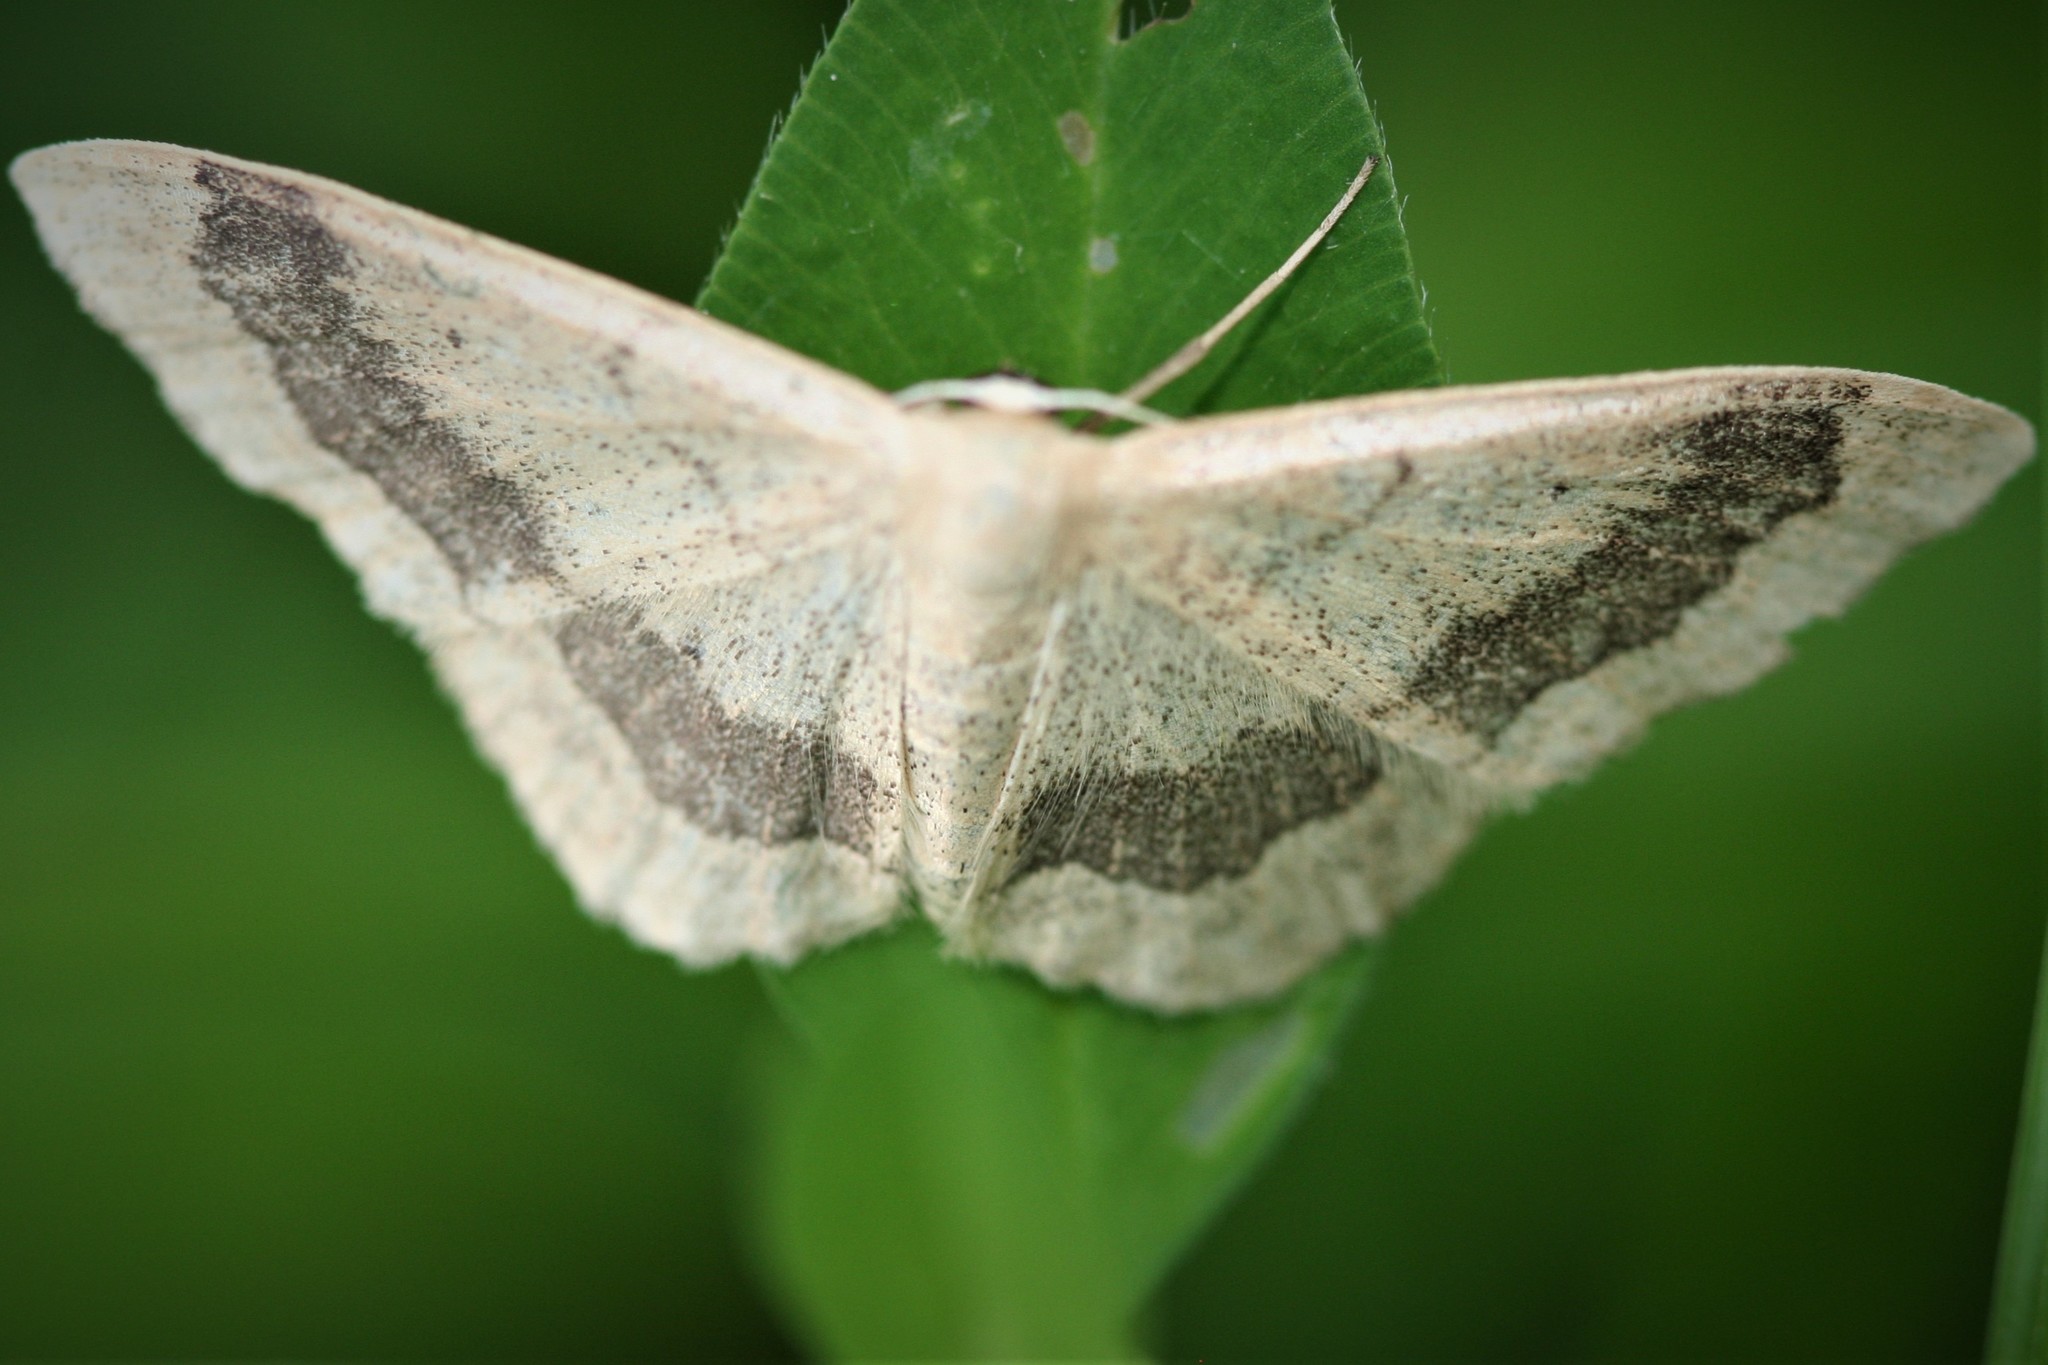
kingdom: Animalia
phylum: Arthropoda
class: Insecta
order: Lepidoptera
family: Geometridae
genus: Idaea
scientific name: Idaea aversata
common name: Riband wave
